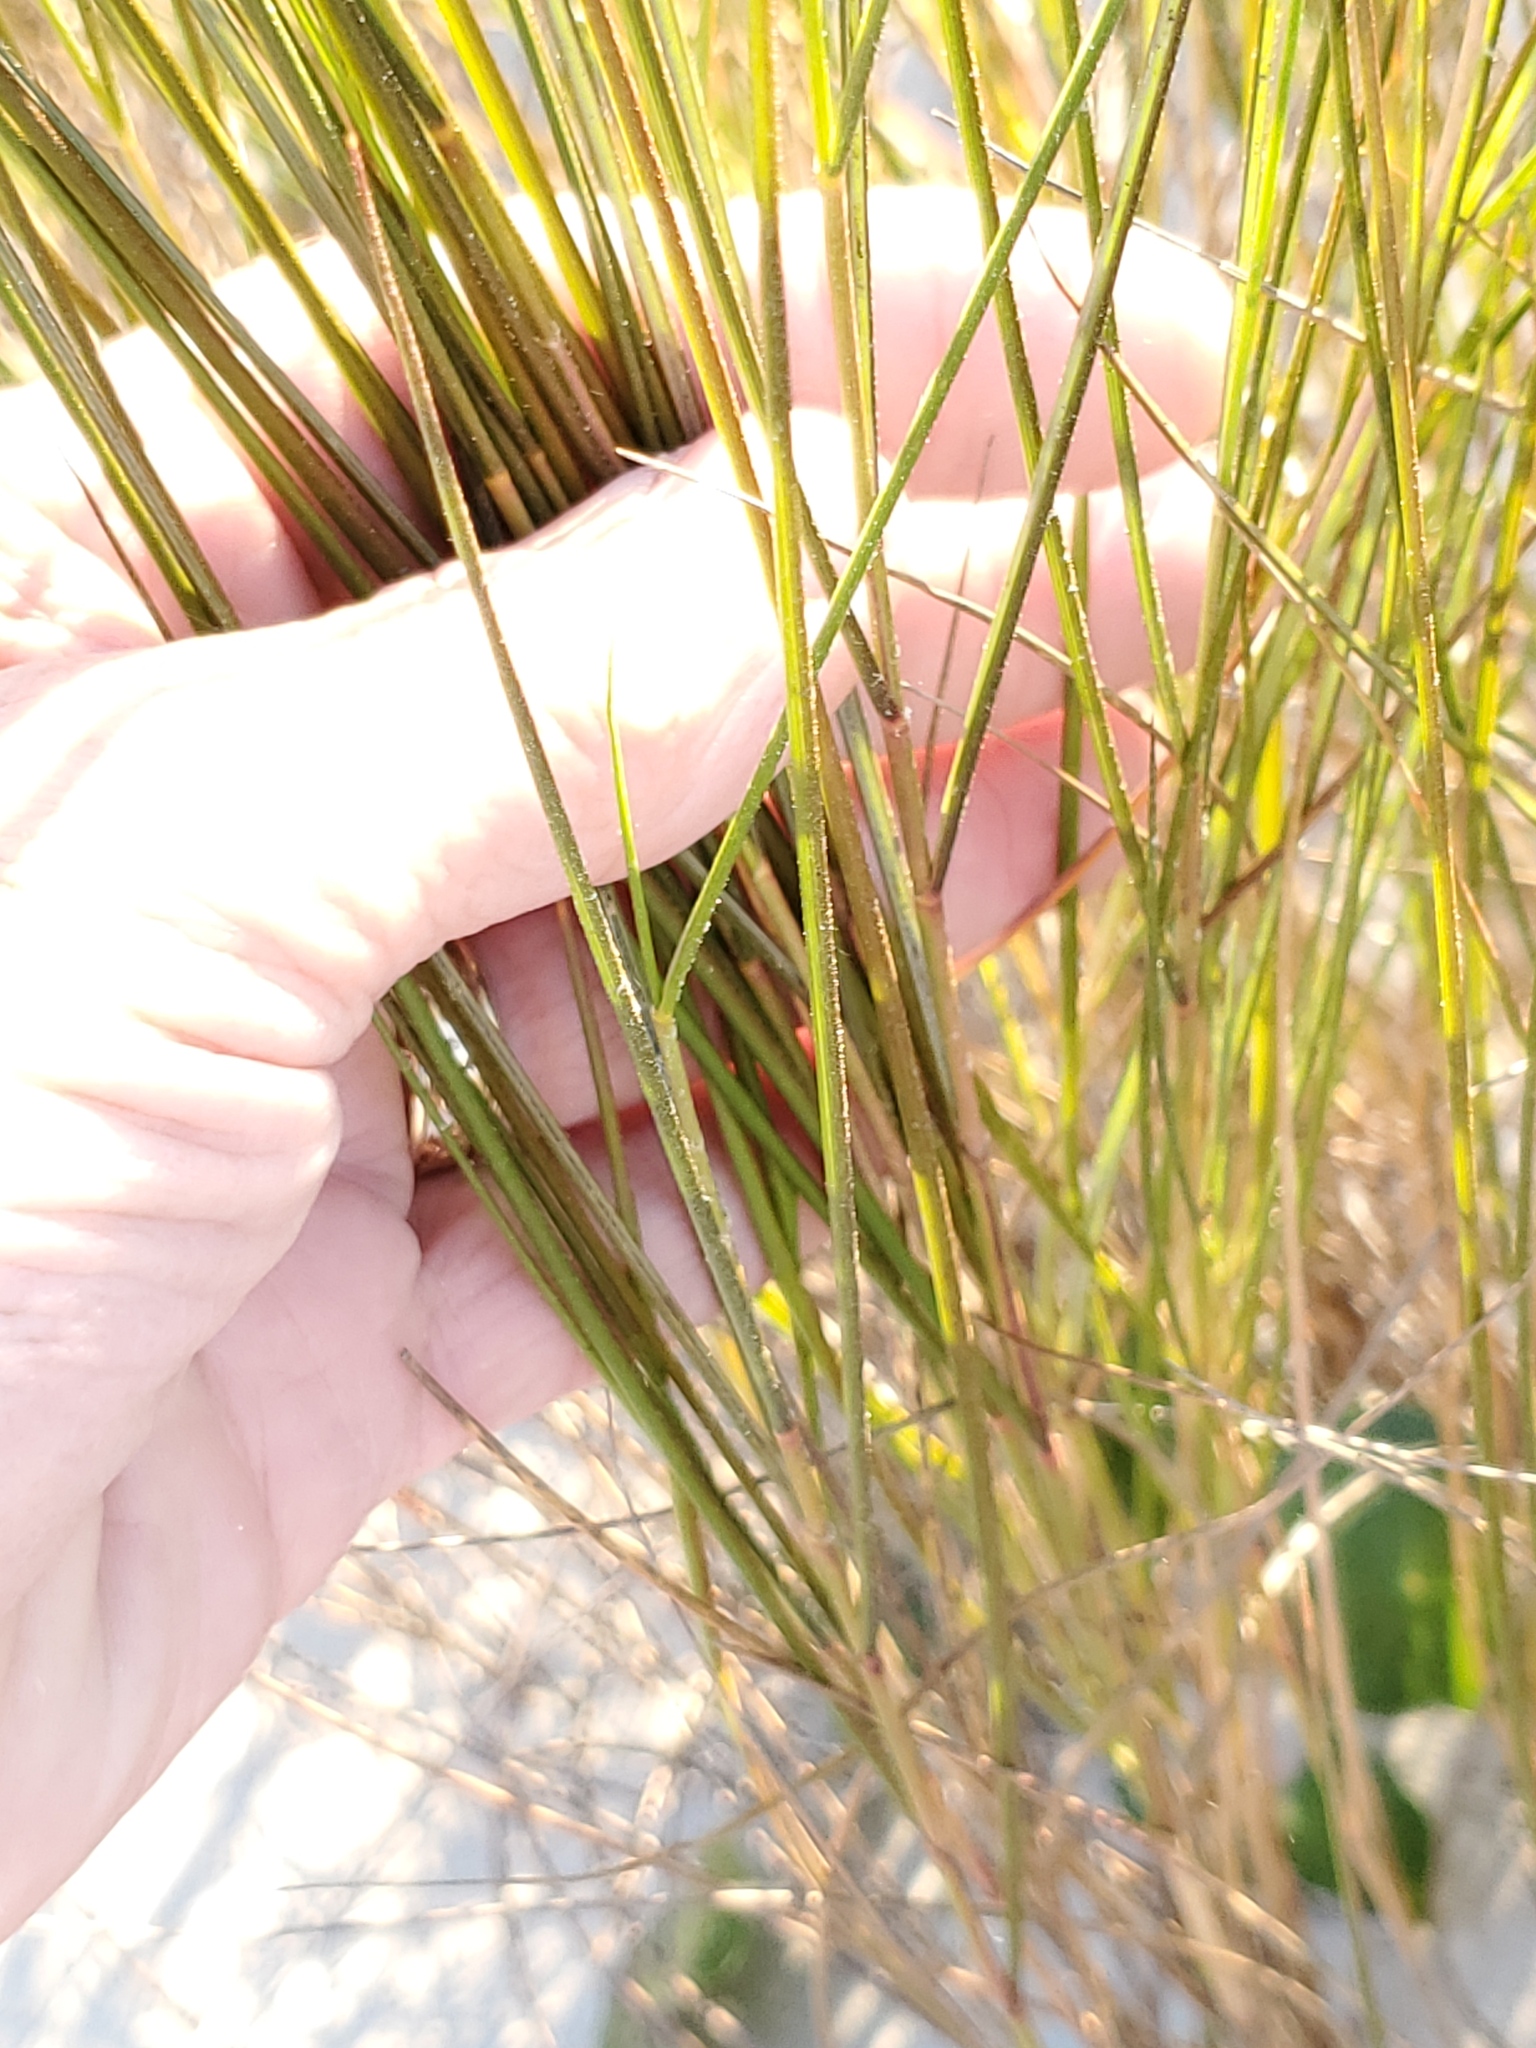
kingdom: Plantae
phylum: Tracheophyta
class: Liliopsida
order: Poales
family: Poaceae
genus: Sporobolus
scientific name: Sporobolus pumilus
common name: Highwater grass
